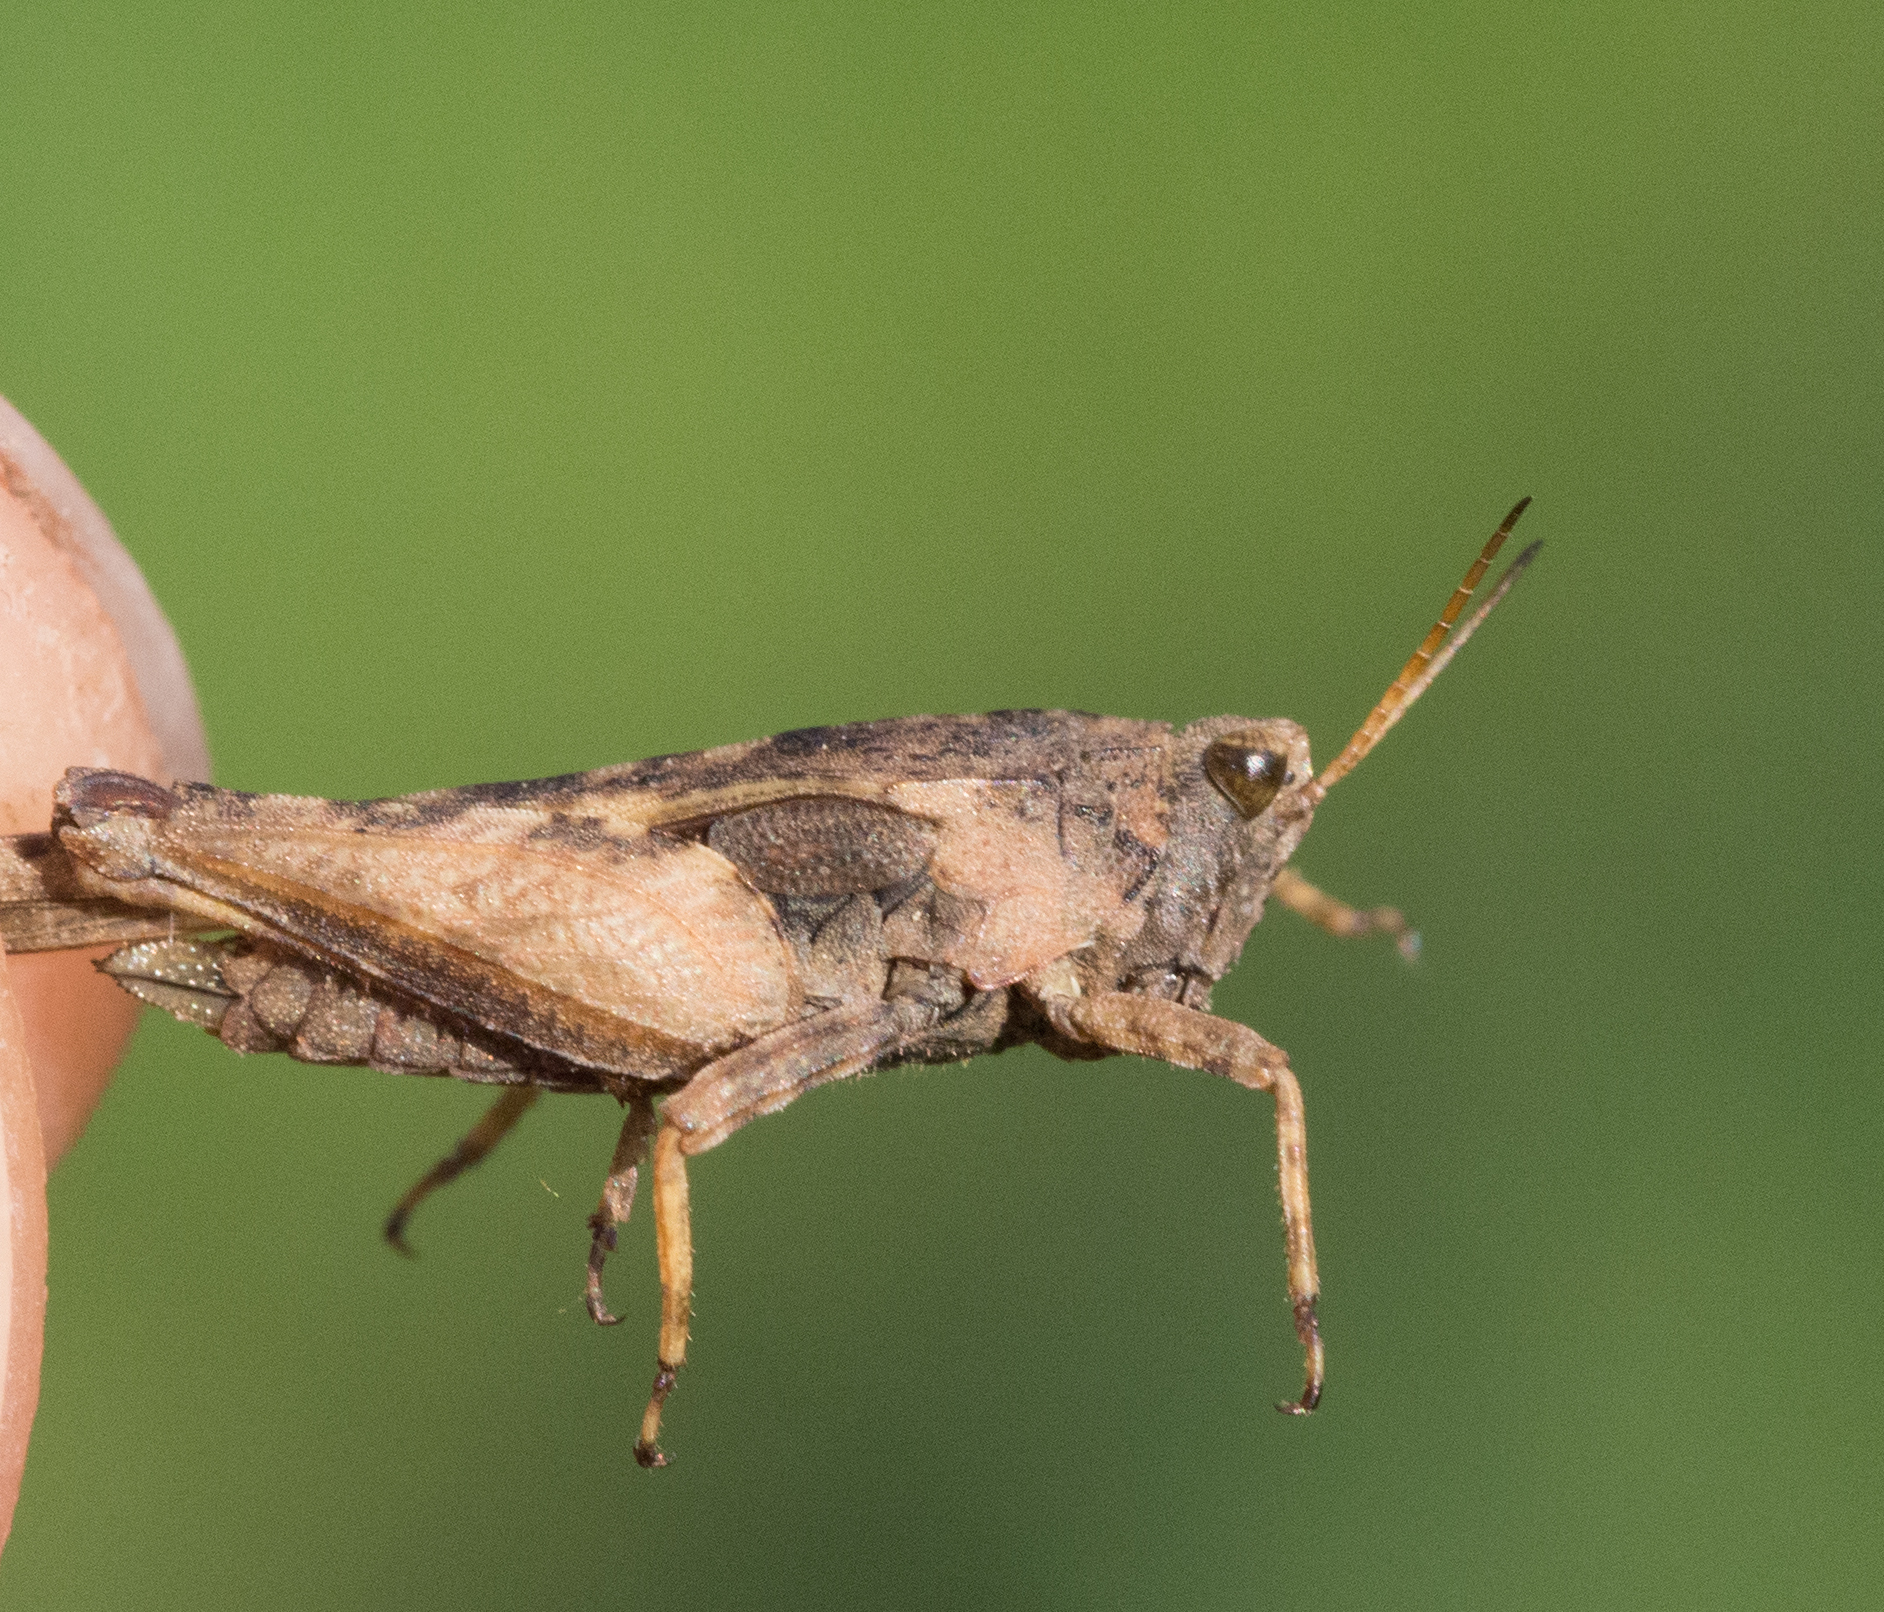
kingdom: Animalia
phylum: Arthropoda
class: Insecta
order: Orthoptera
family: Tetrigidae
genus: Tetrix
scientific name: Tetrix subulata
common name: Slender ground-hopper
